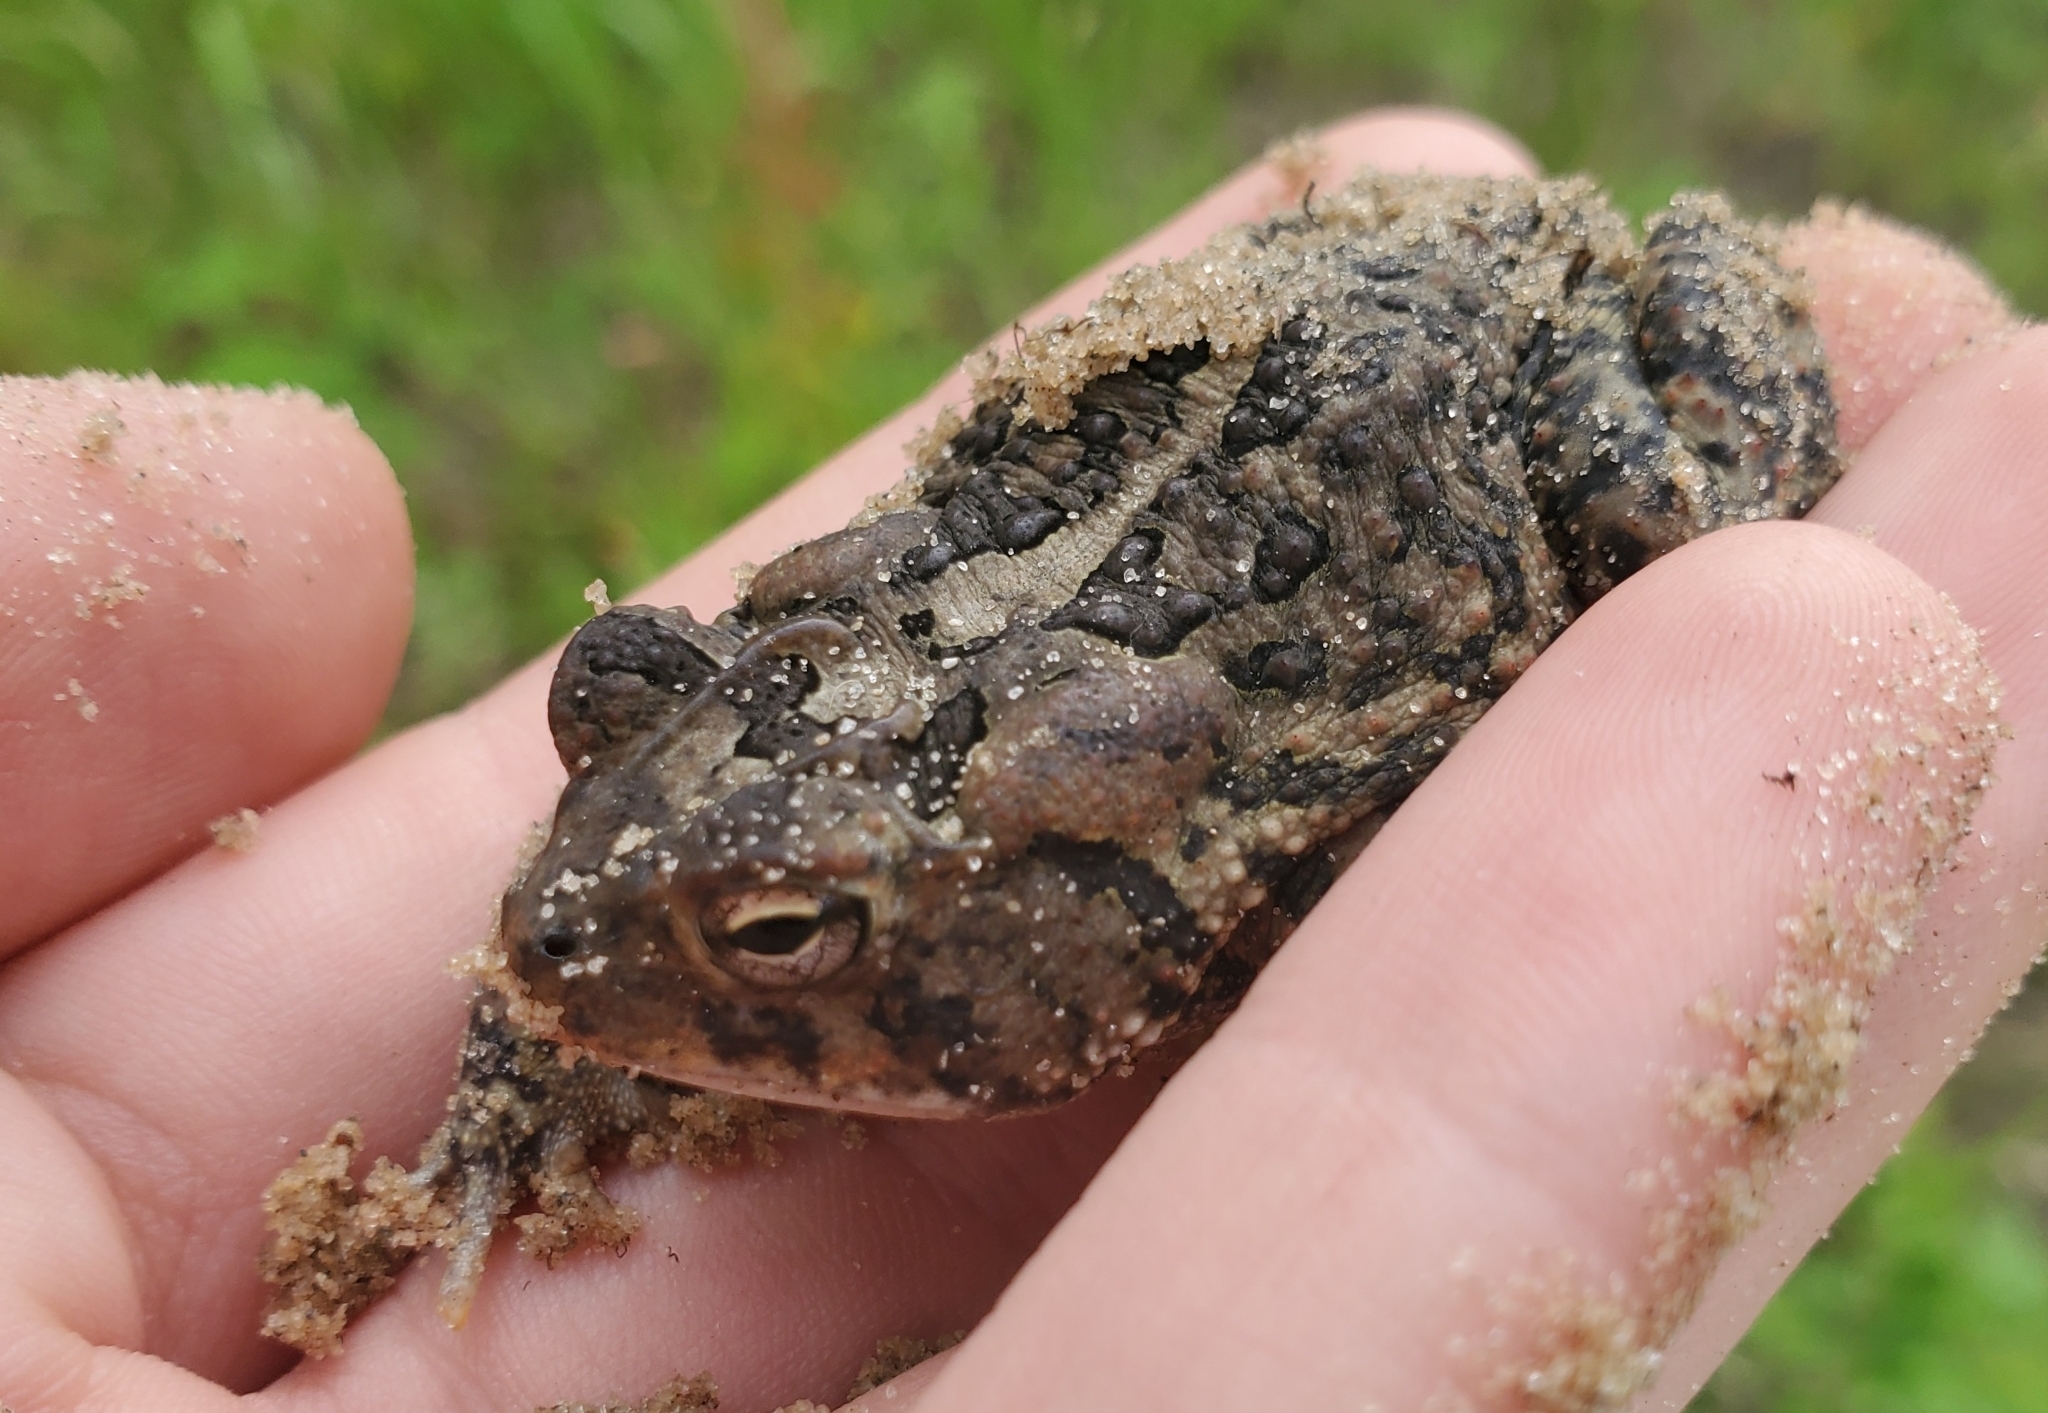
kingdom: Animalia
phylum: Chordata
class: Amphibia
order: Anura
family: Bufonidae
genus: Anaxyrus
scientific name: Anaxyrus terrestris
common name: Southern toad
